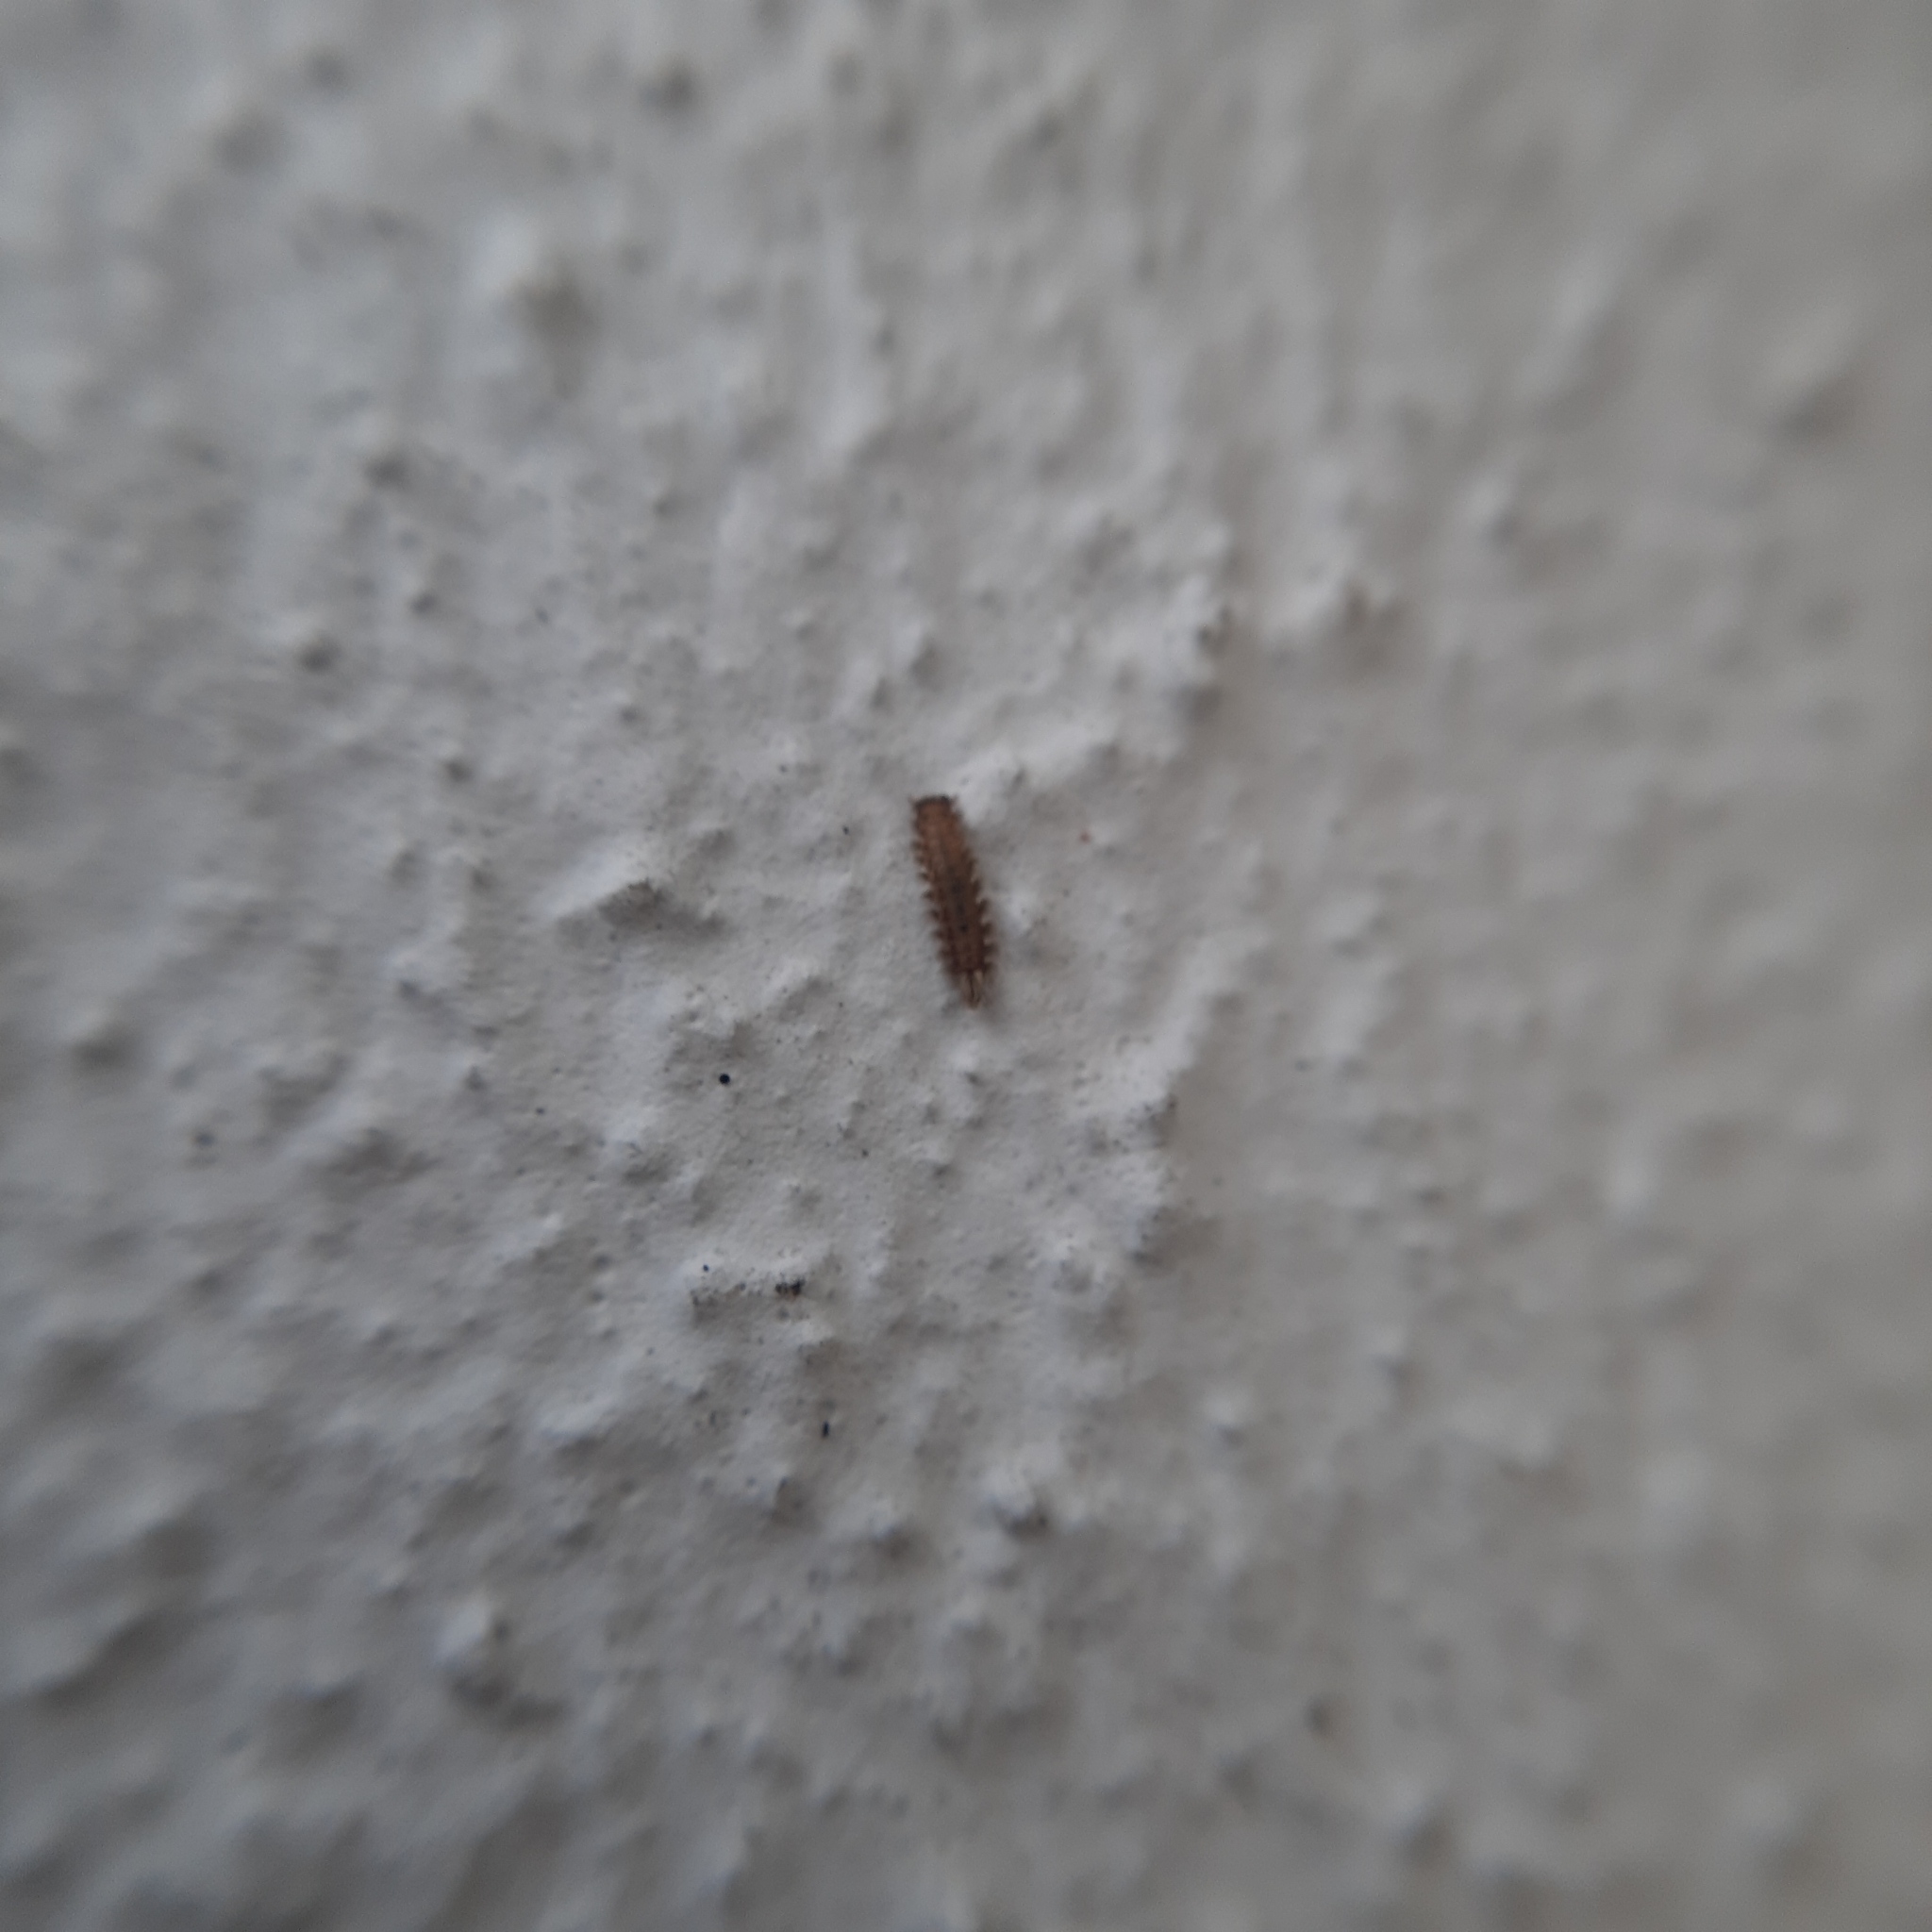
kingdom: Animalia
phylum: Arthropoda
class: Diplopoda
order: Polyxenida
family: Polyxenidae
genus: Polyxenus
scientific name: Polyxenus lagurus
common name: Bristly millipede
